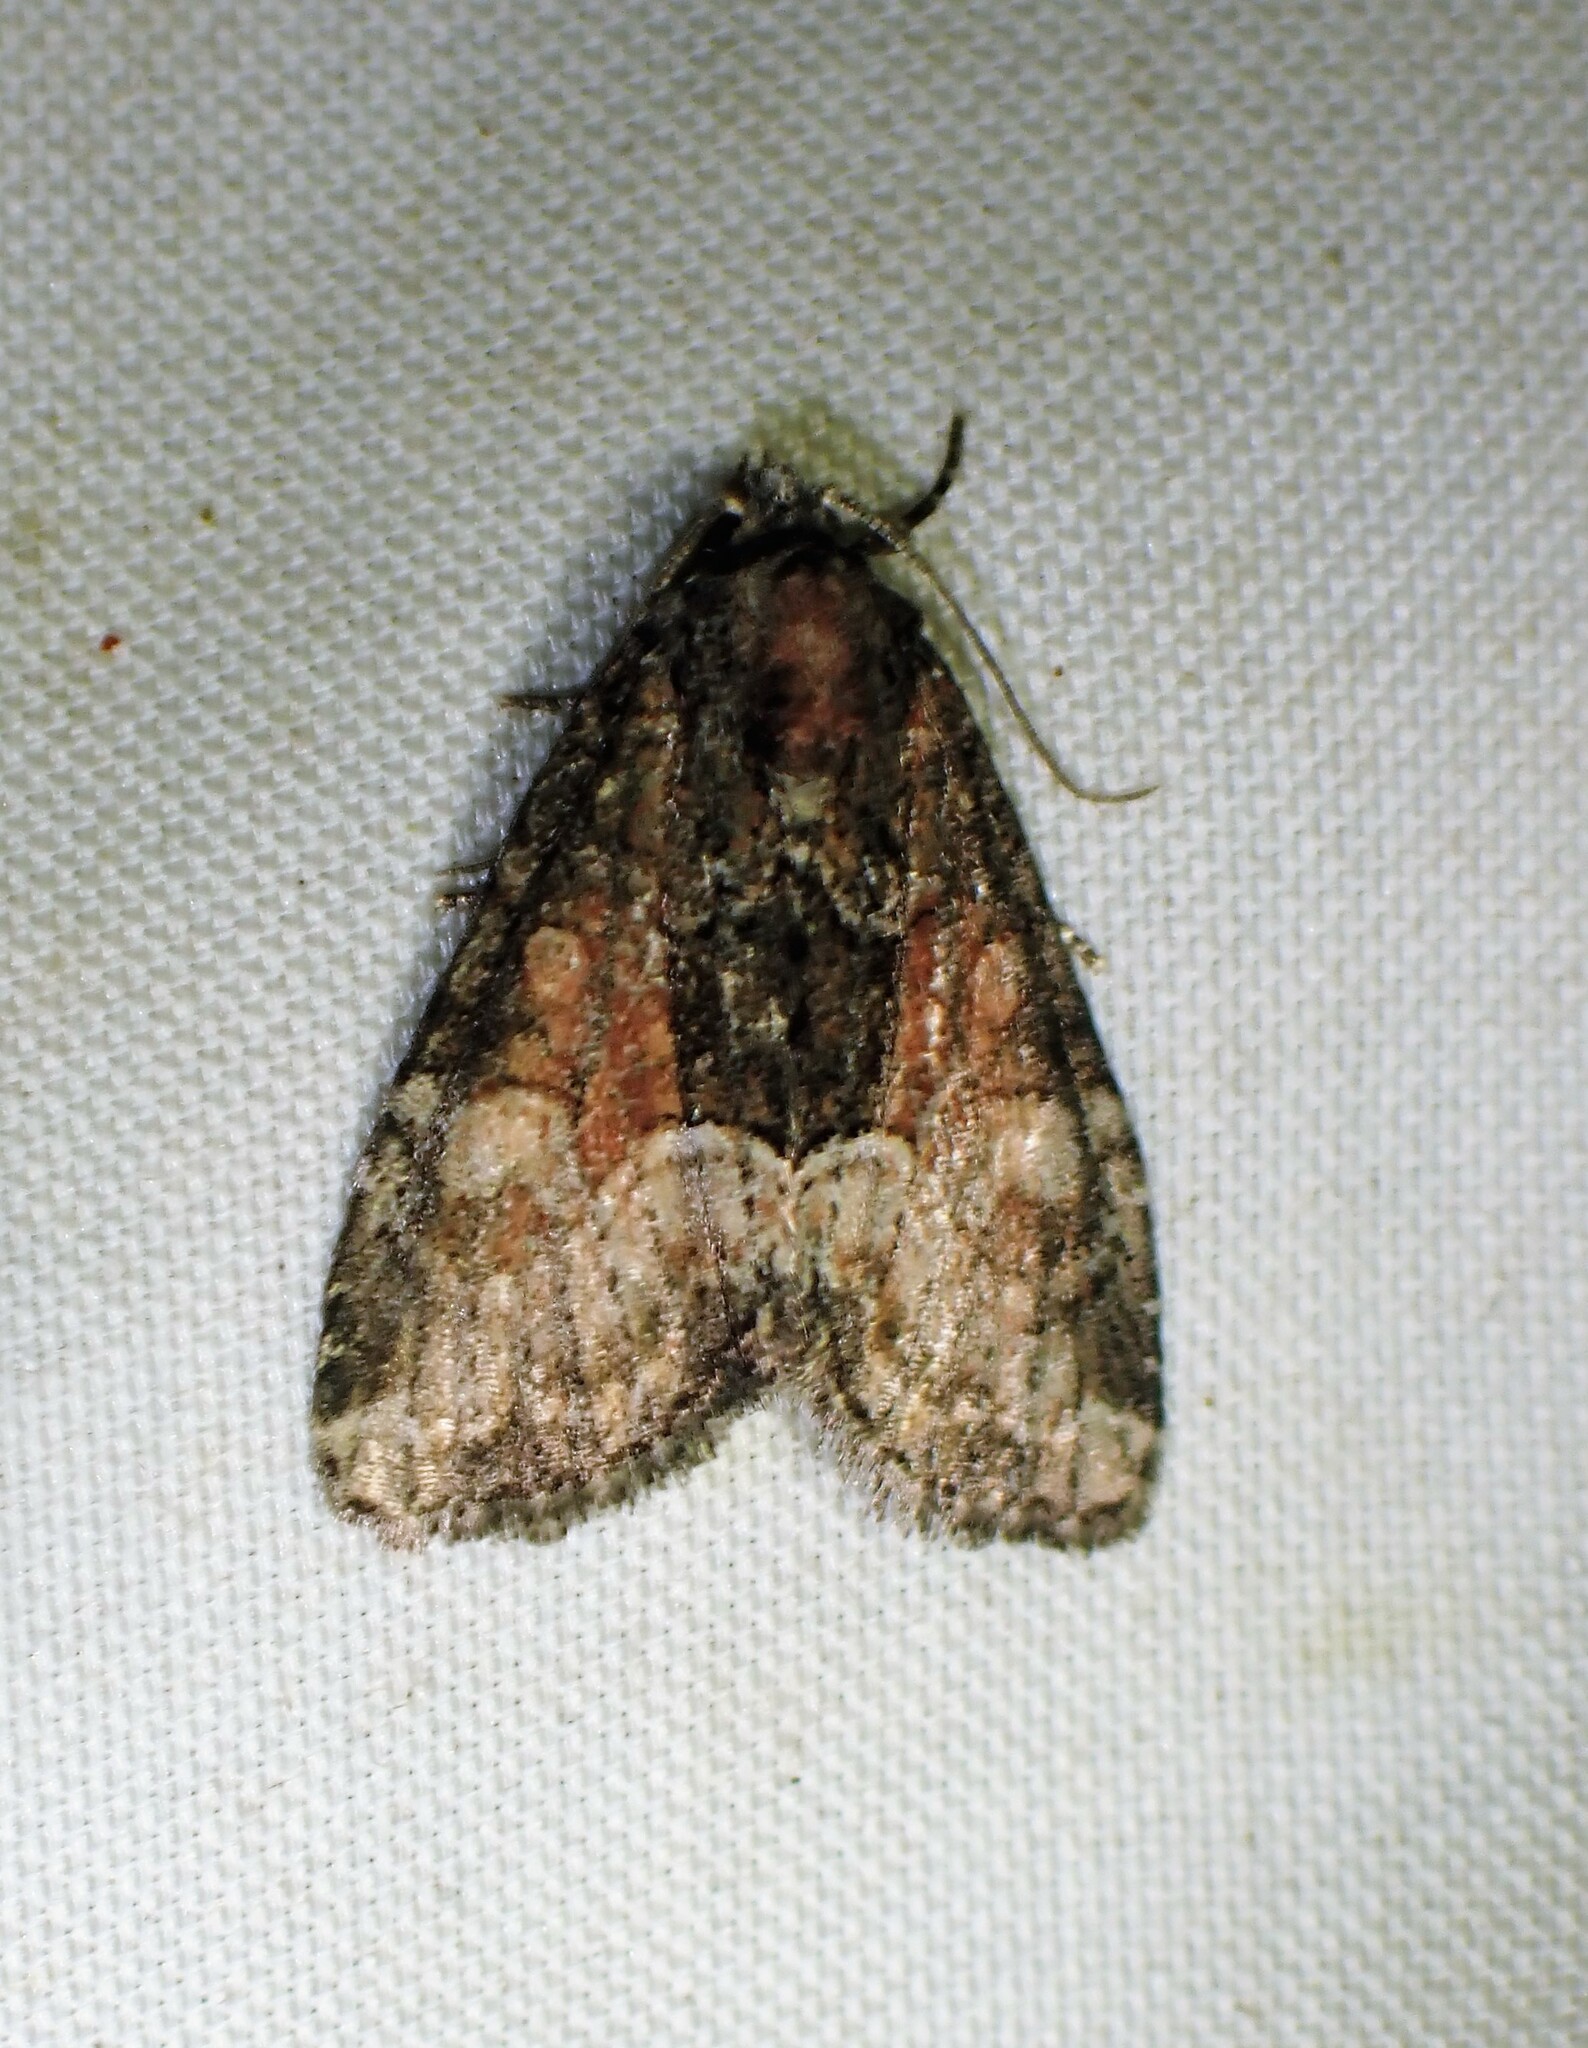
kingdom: Animalia
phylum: Arthropoda
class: Insecta
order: Lepidoptera
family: Noctuidae
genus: Neoligia
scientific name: Neoligia subjuncta
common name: Connected brocade
